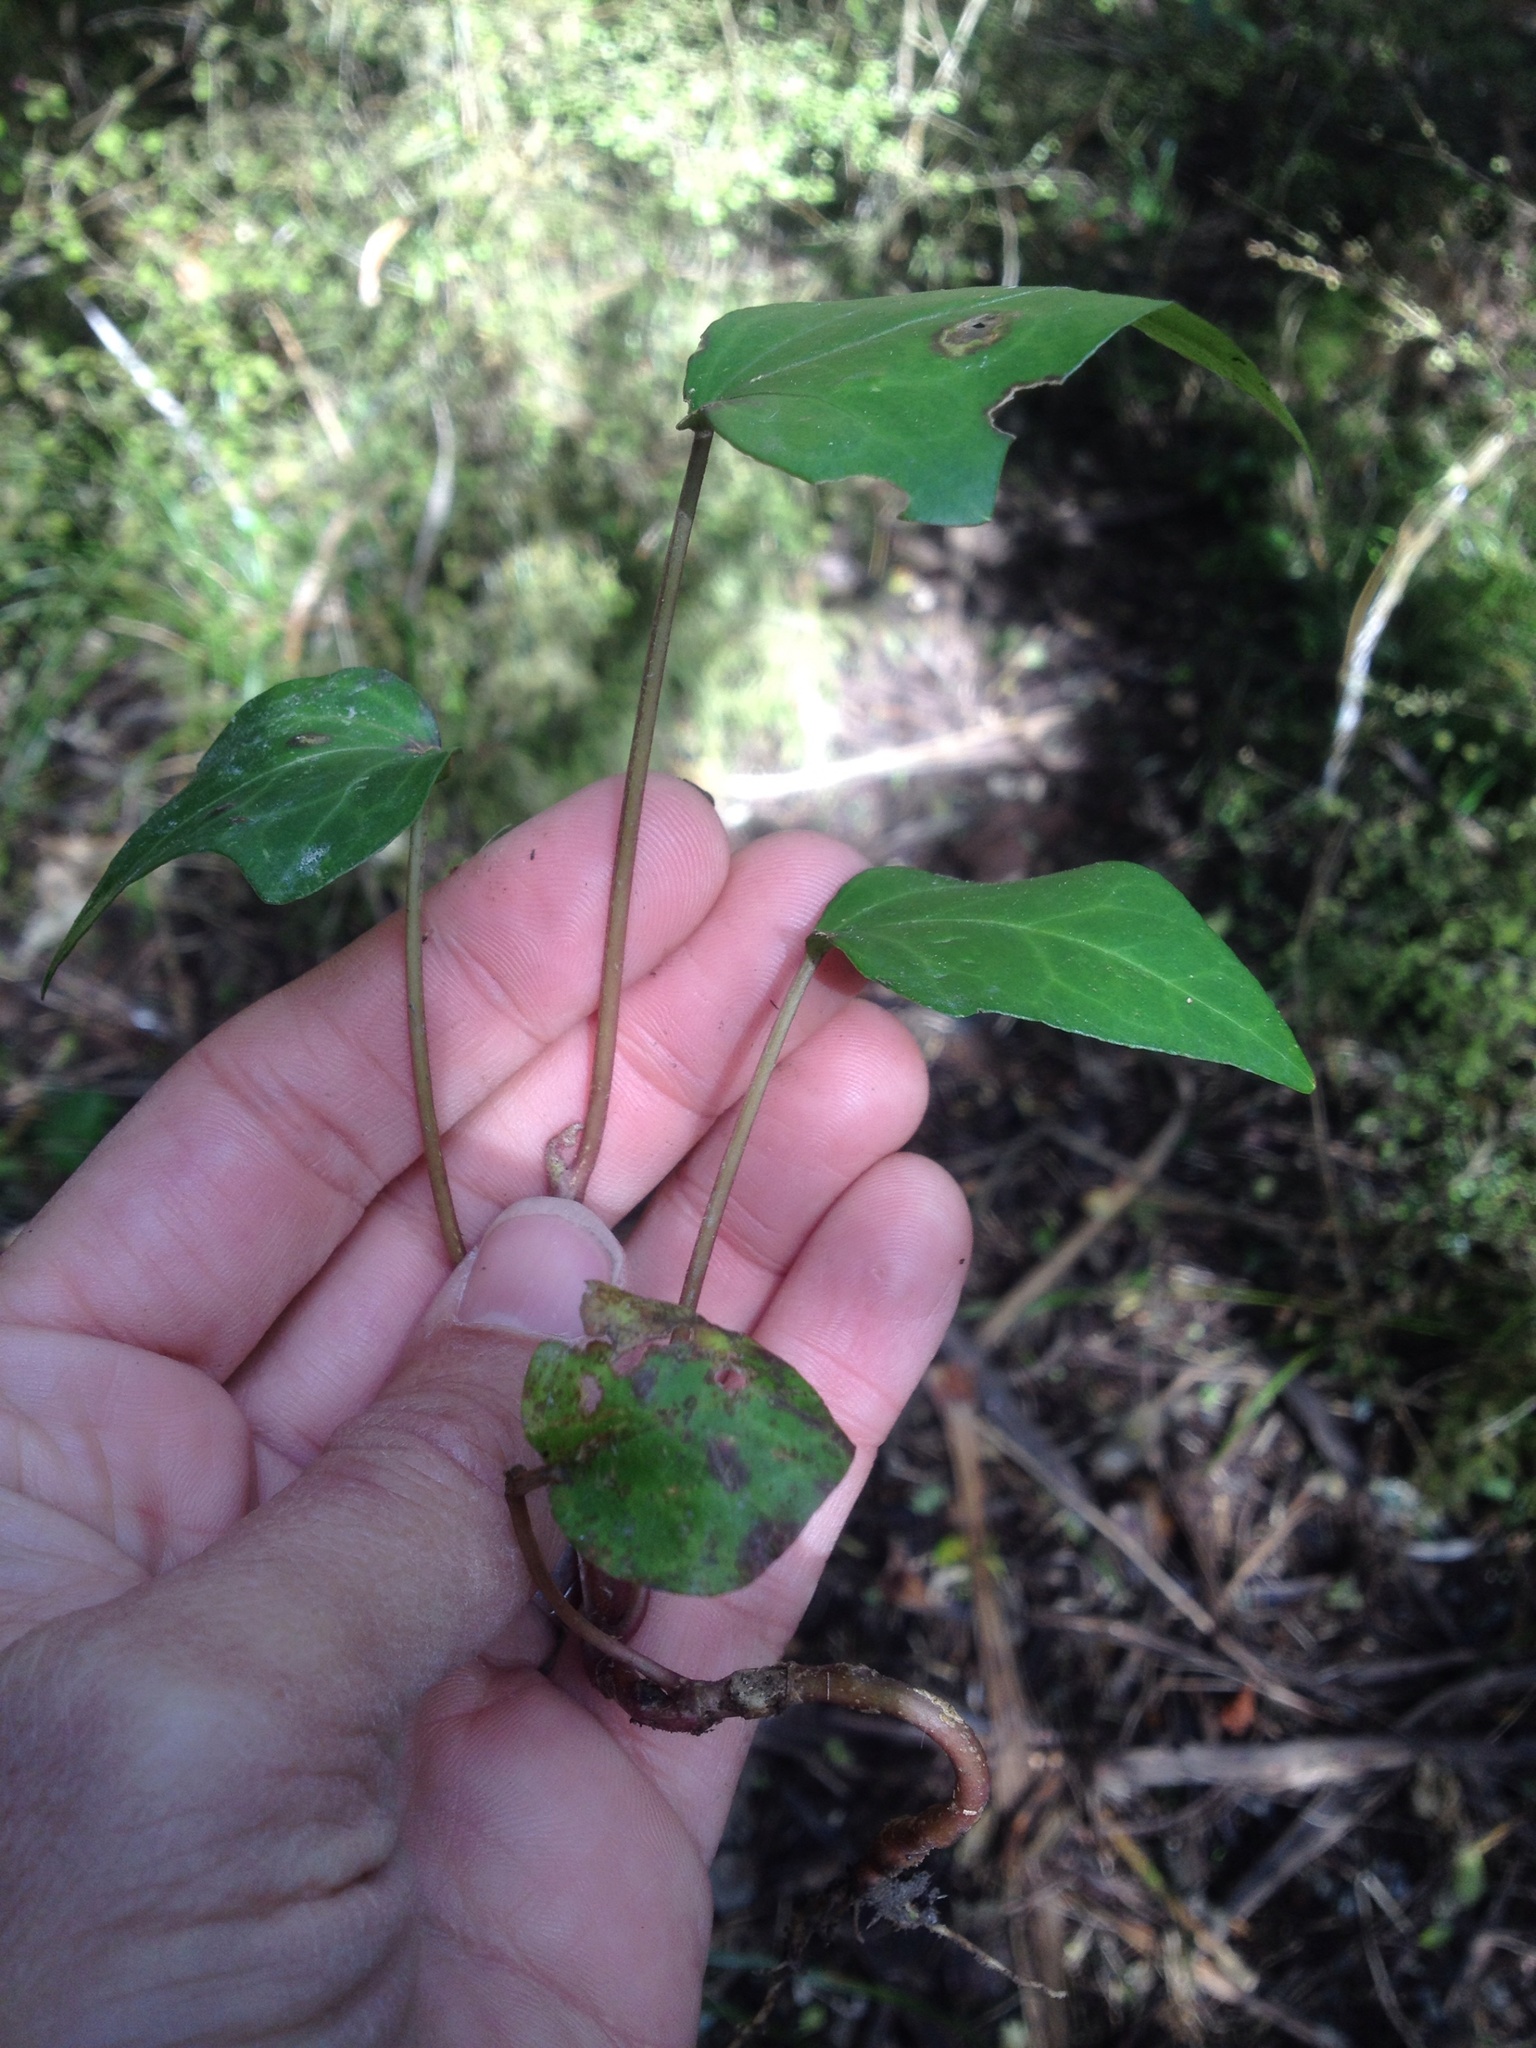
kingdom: Plantae
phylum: Tracheophyta
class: Magnoliopsida
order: Apiales
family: Araliaceae
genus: Hedera
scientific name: Hedera helix
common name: Ivy
